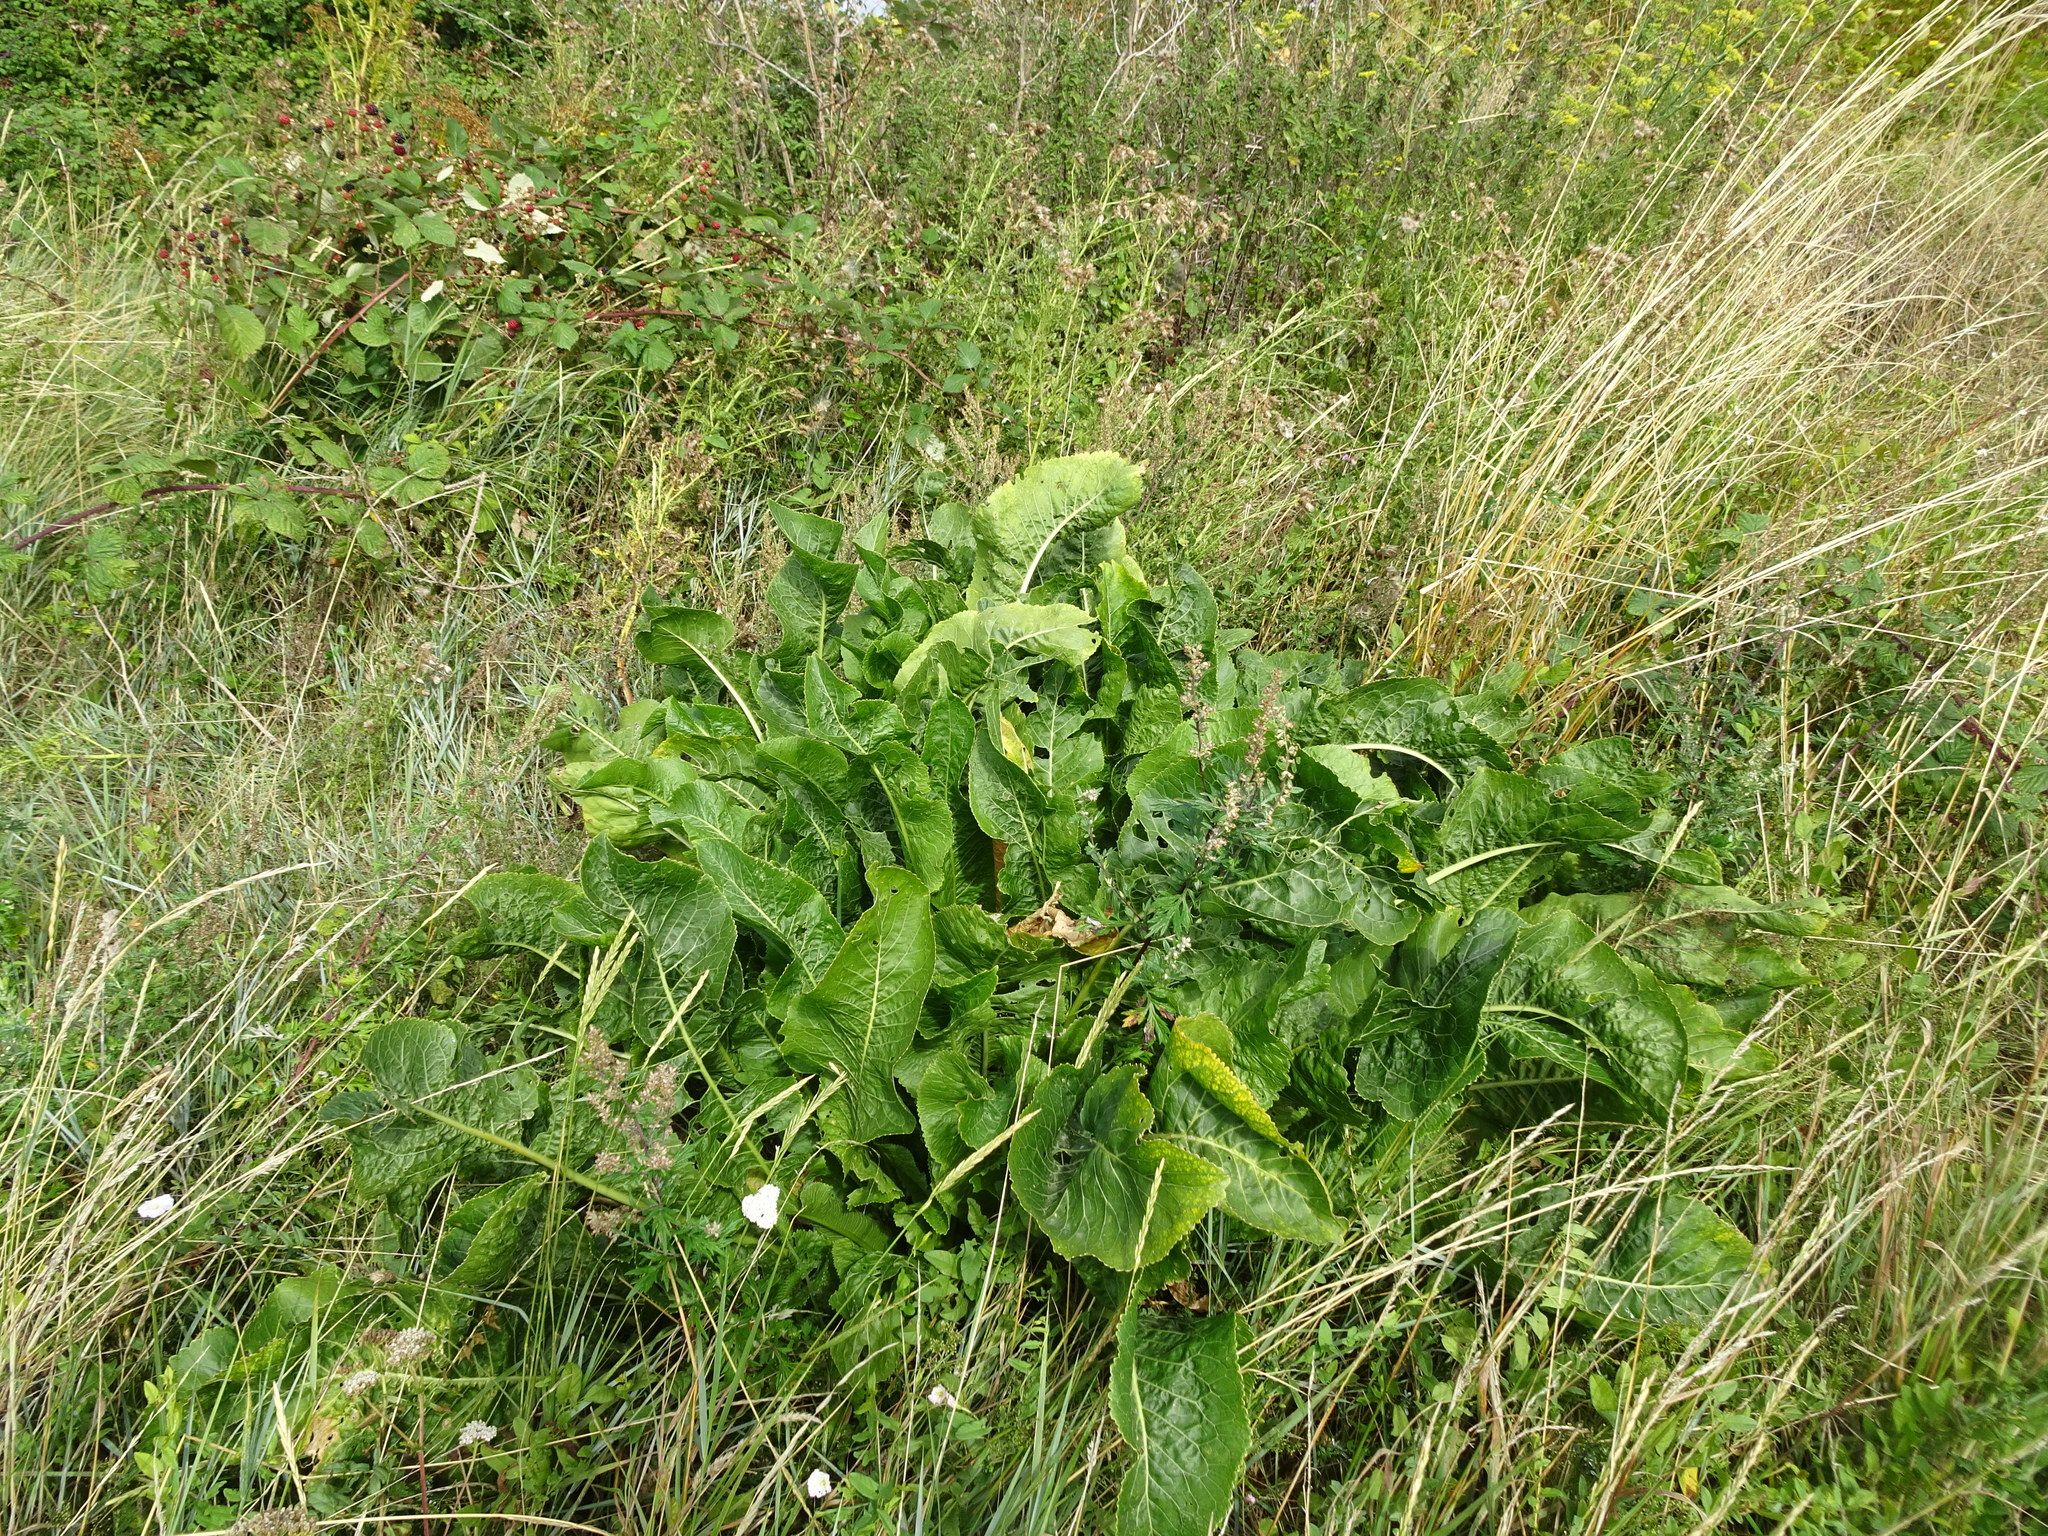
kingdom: Plantae
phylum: Tracheophyta
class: Magnoliopsida
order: Brassicales
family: Brassicaceae
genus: Armoracia
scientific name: Armoracia rusticana
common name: Horseradish
